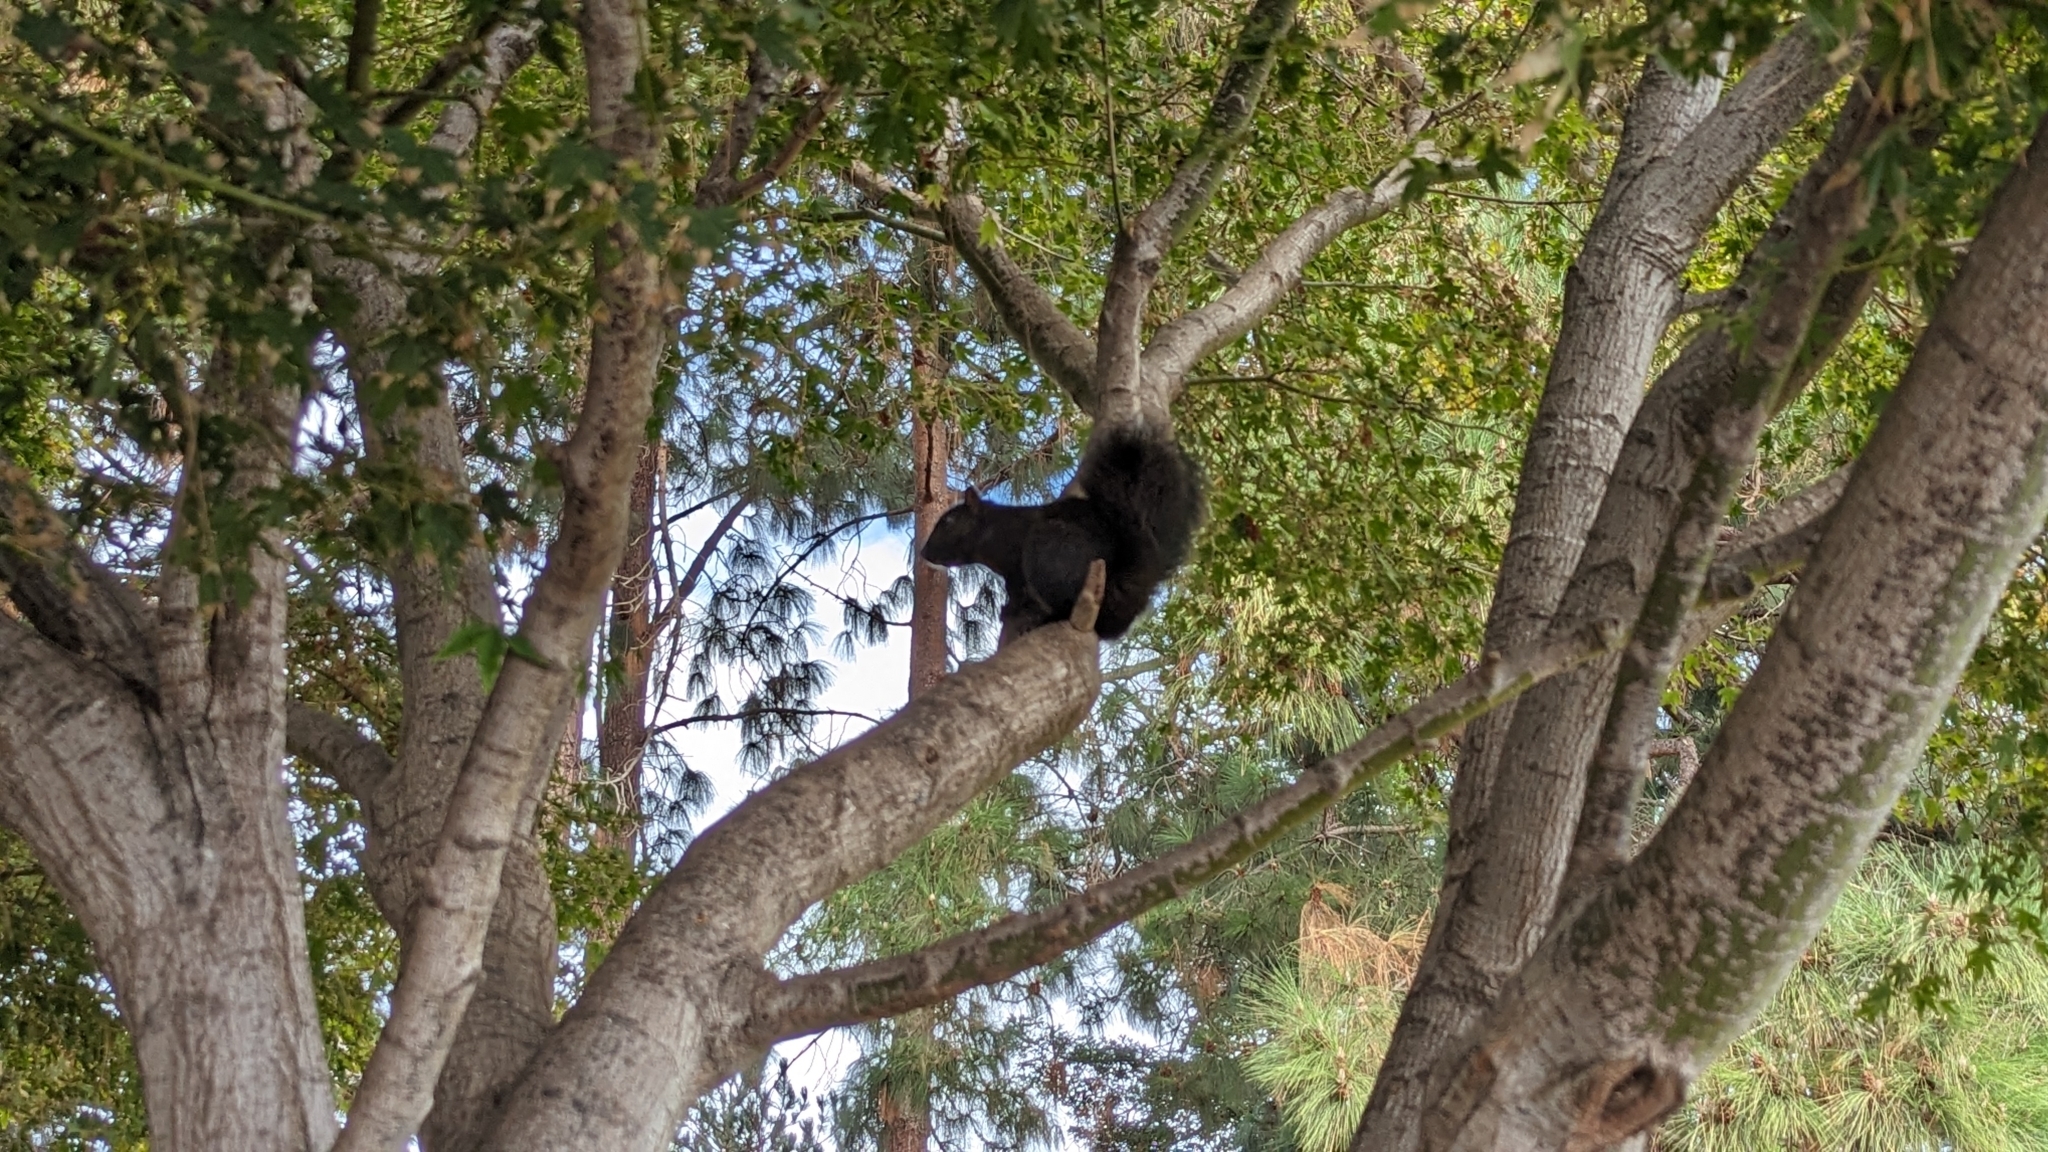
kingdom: Animalia
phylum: Chordata
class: Mammalia
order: Rodentia
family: Sciuridae
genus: Sciurus
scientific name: Sciurus carolinensis
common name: Eastern gray squirrel
